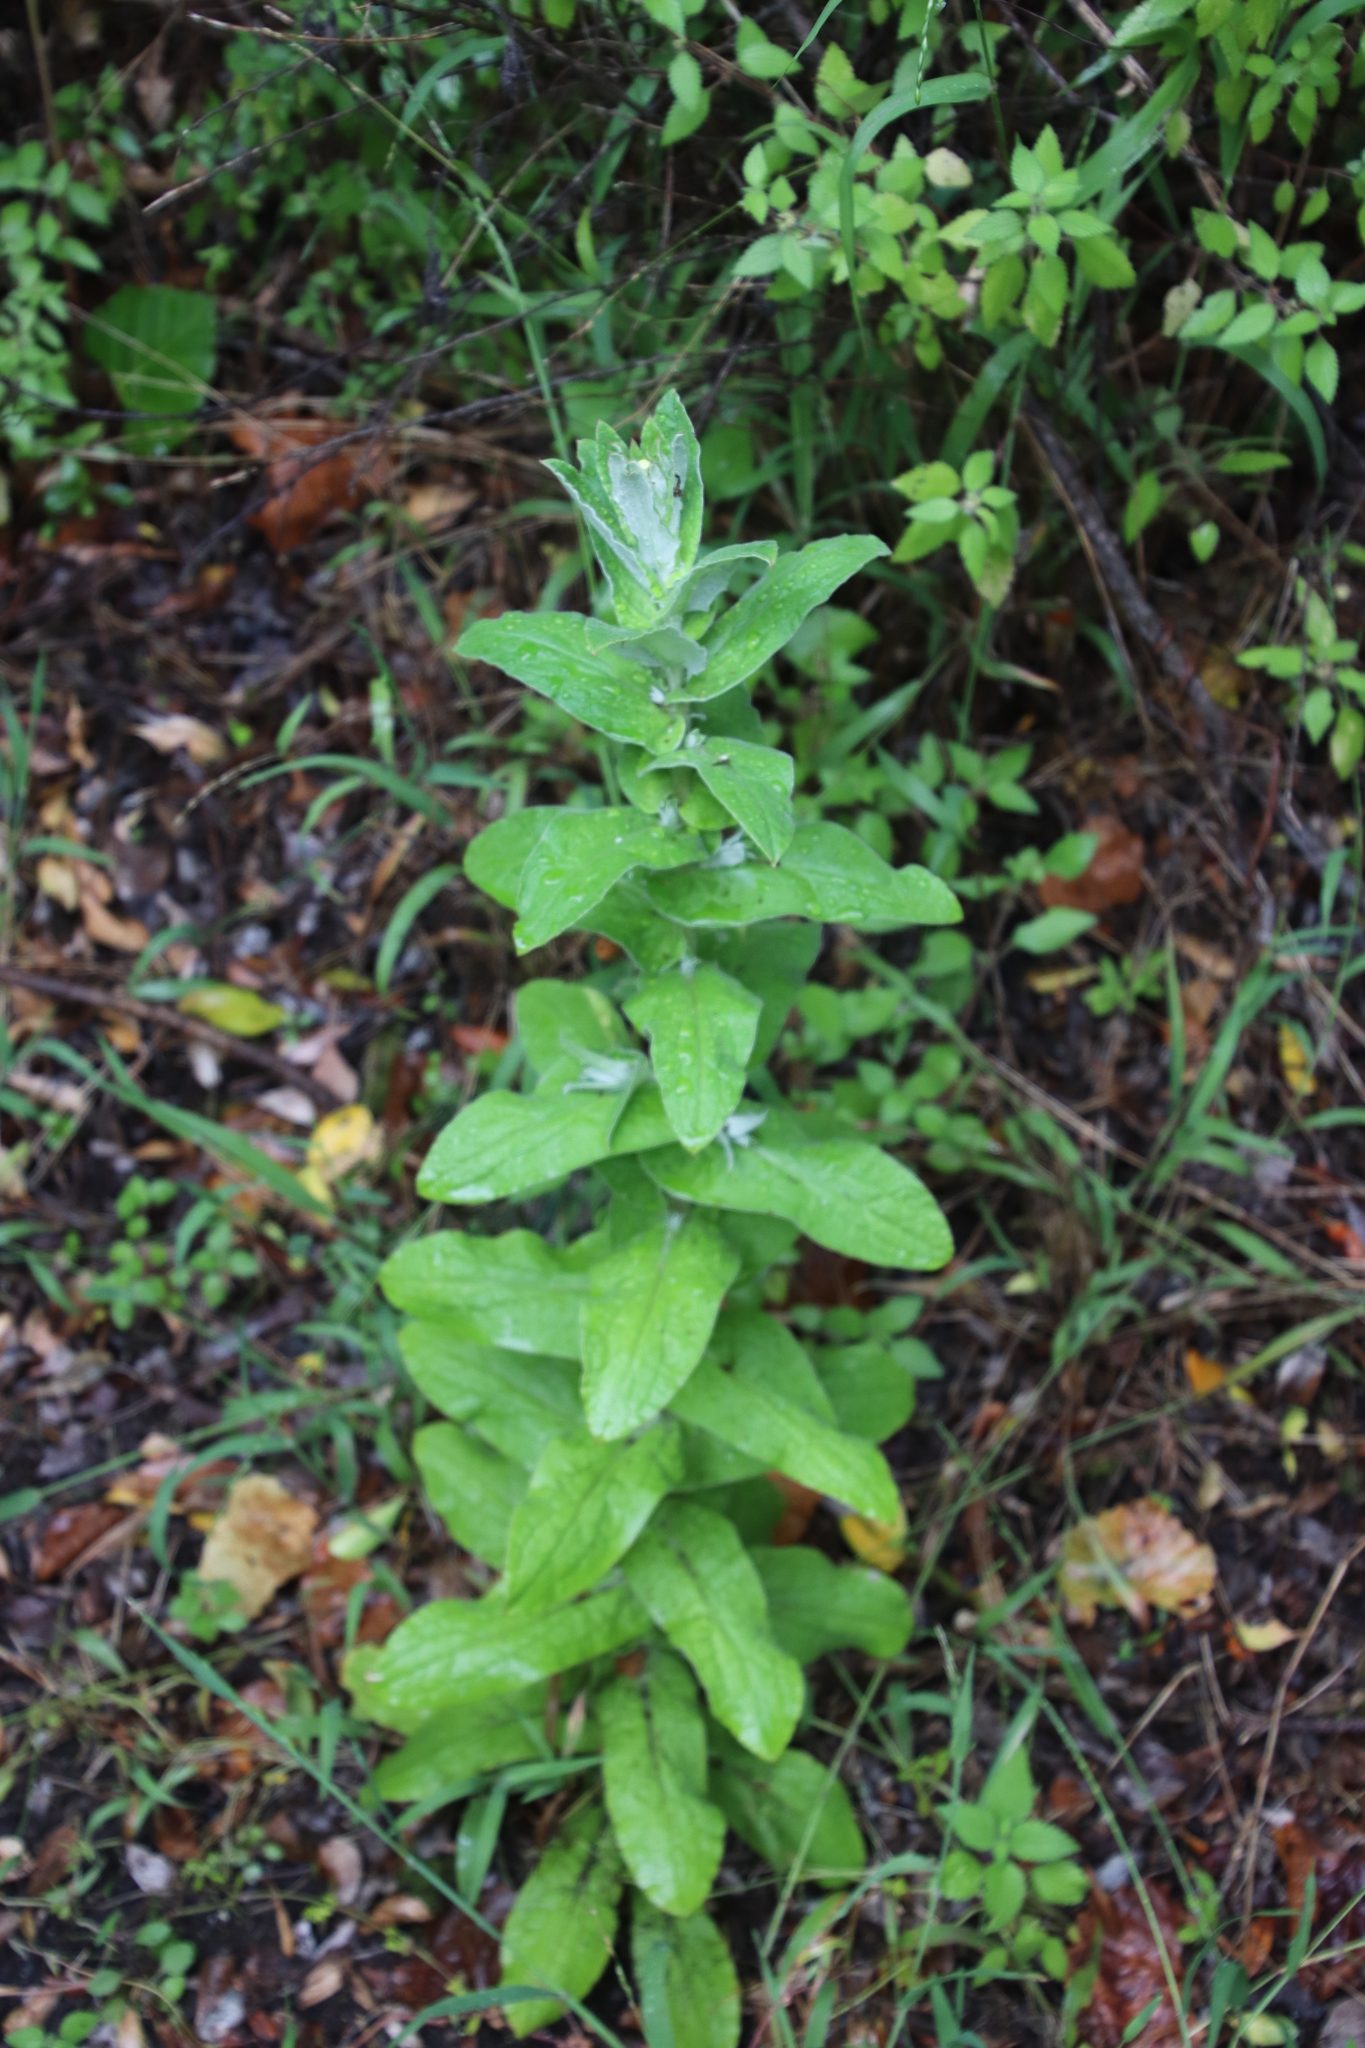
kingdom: Plantae
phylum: Tracheophyta
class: Magnoliopsida
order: Asterales
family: Asteraceae
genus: Helichrysum
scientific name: Helichrysum foetidum
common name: Stinking everlasting
